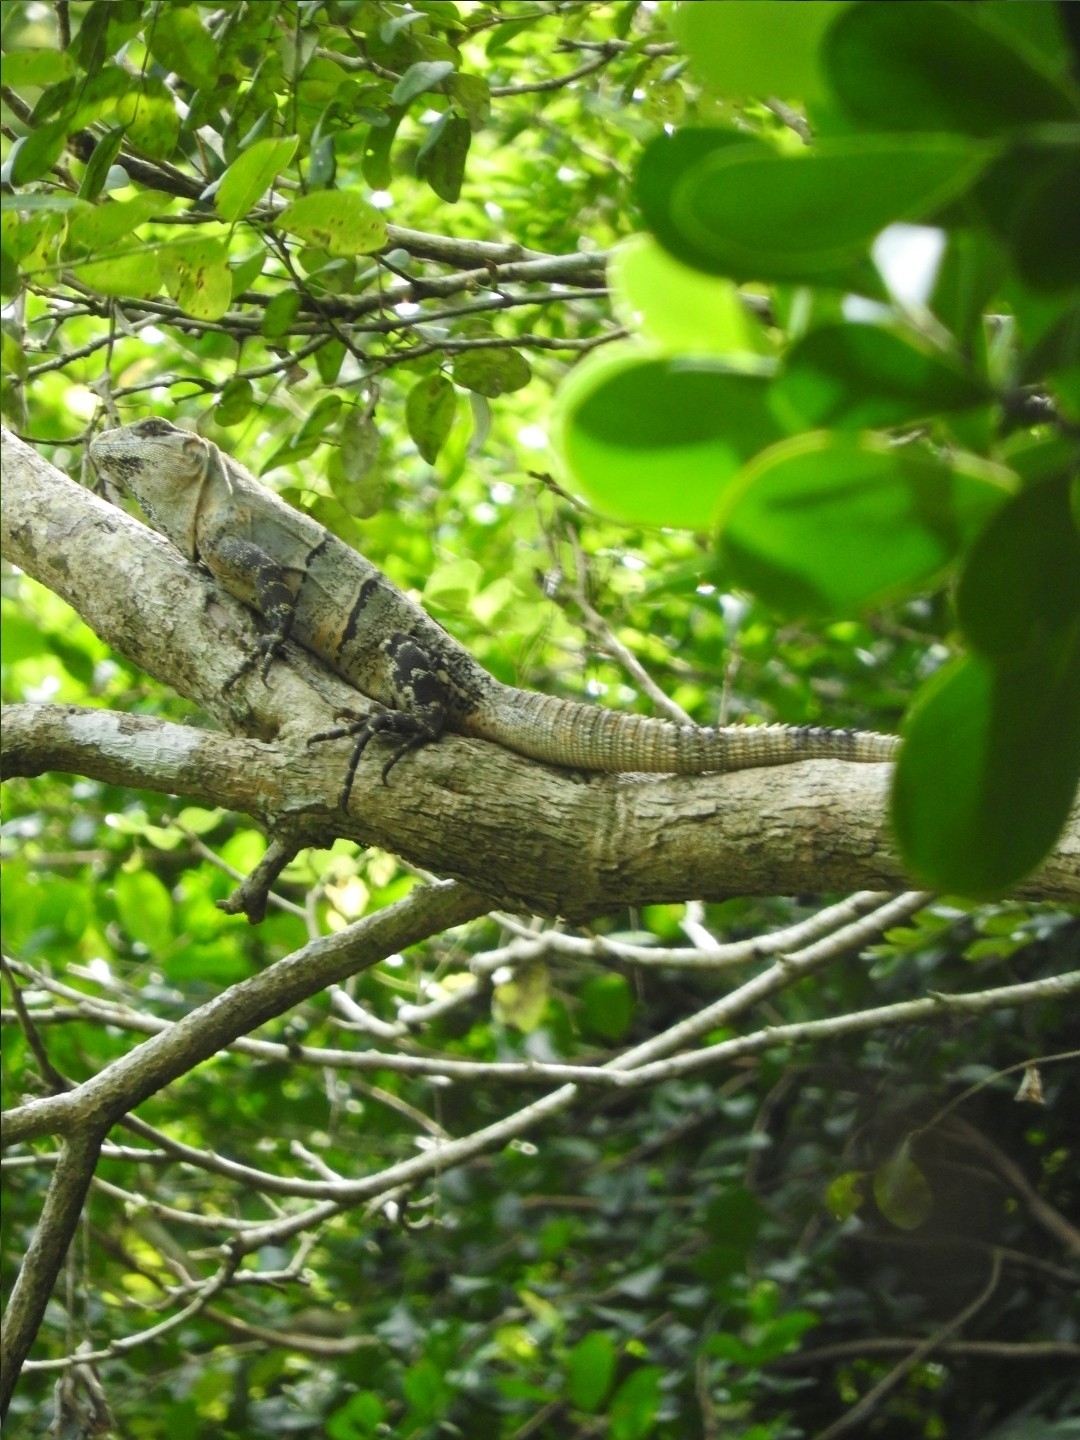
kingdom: Animalia
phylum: Chordata
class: Squamata
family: Iguanidae
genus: Ctenosaura
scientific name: Ctenosaura similis
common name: Black spiny-tailed iguana
